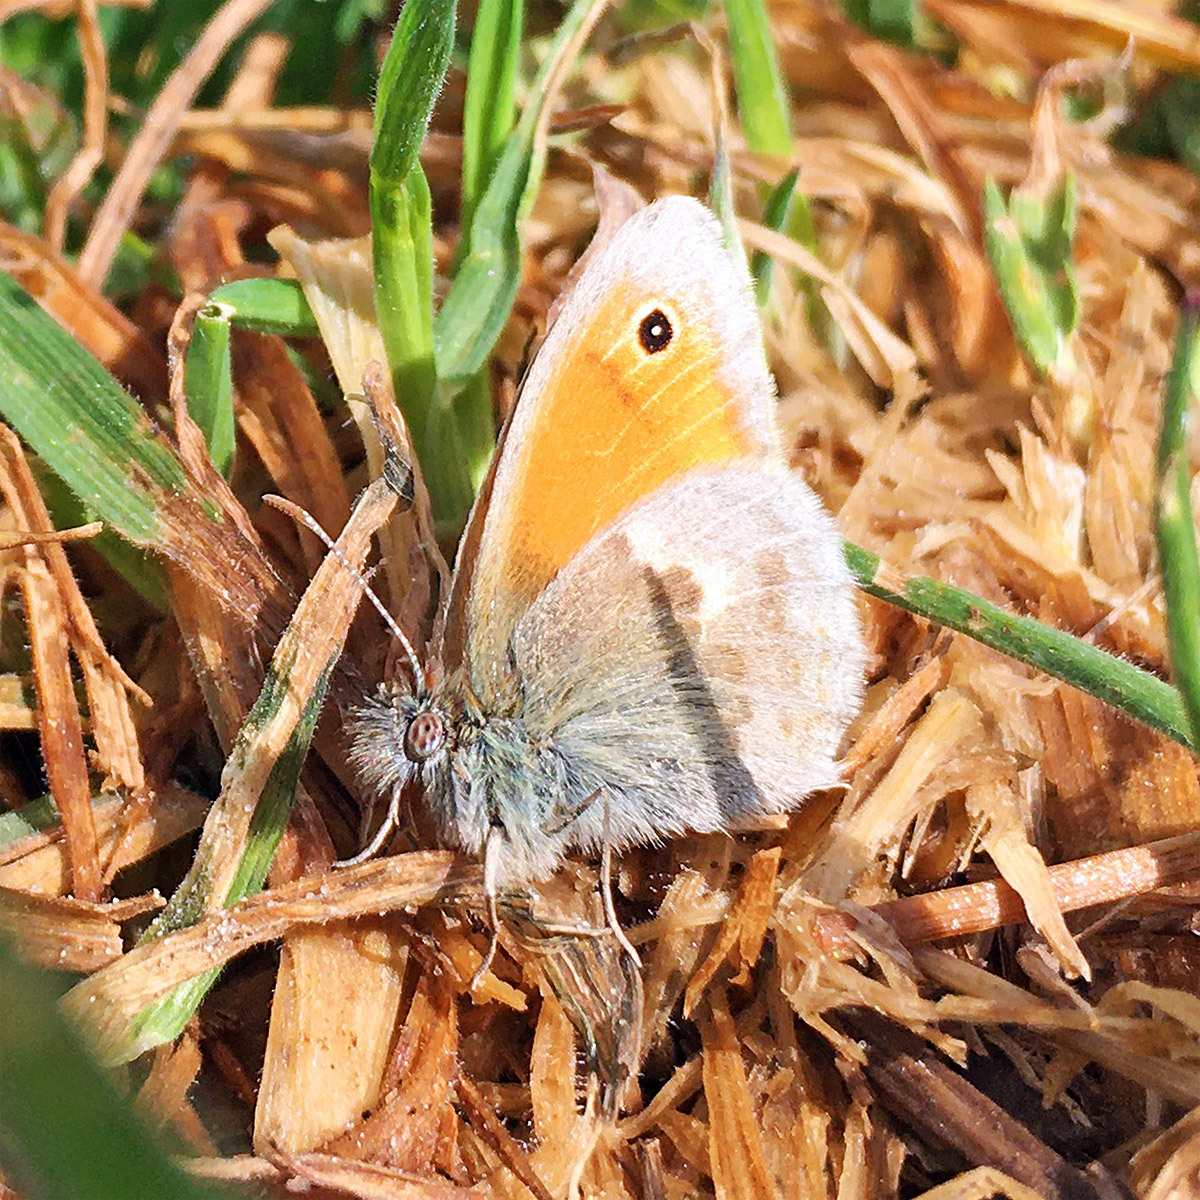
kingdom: Animalia
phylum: Arthropoda
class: Insecta
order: Lepidoptera
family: Nymphalidae
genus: Coenonympha
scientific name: Coenonympha pamphilus
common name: Small heath
